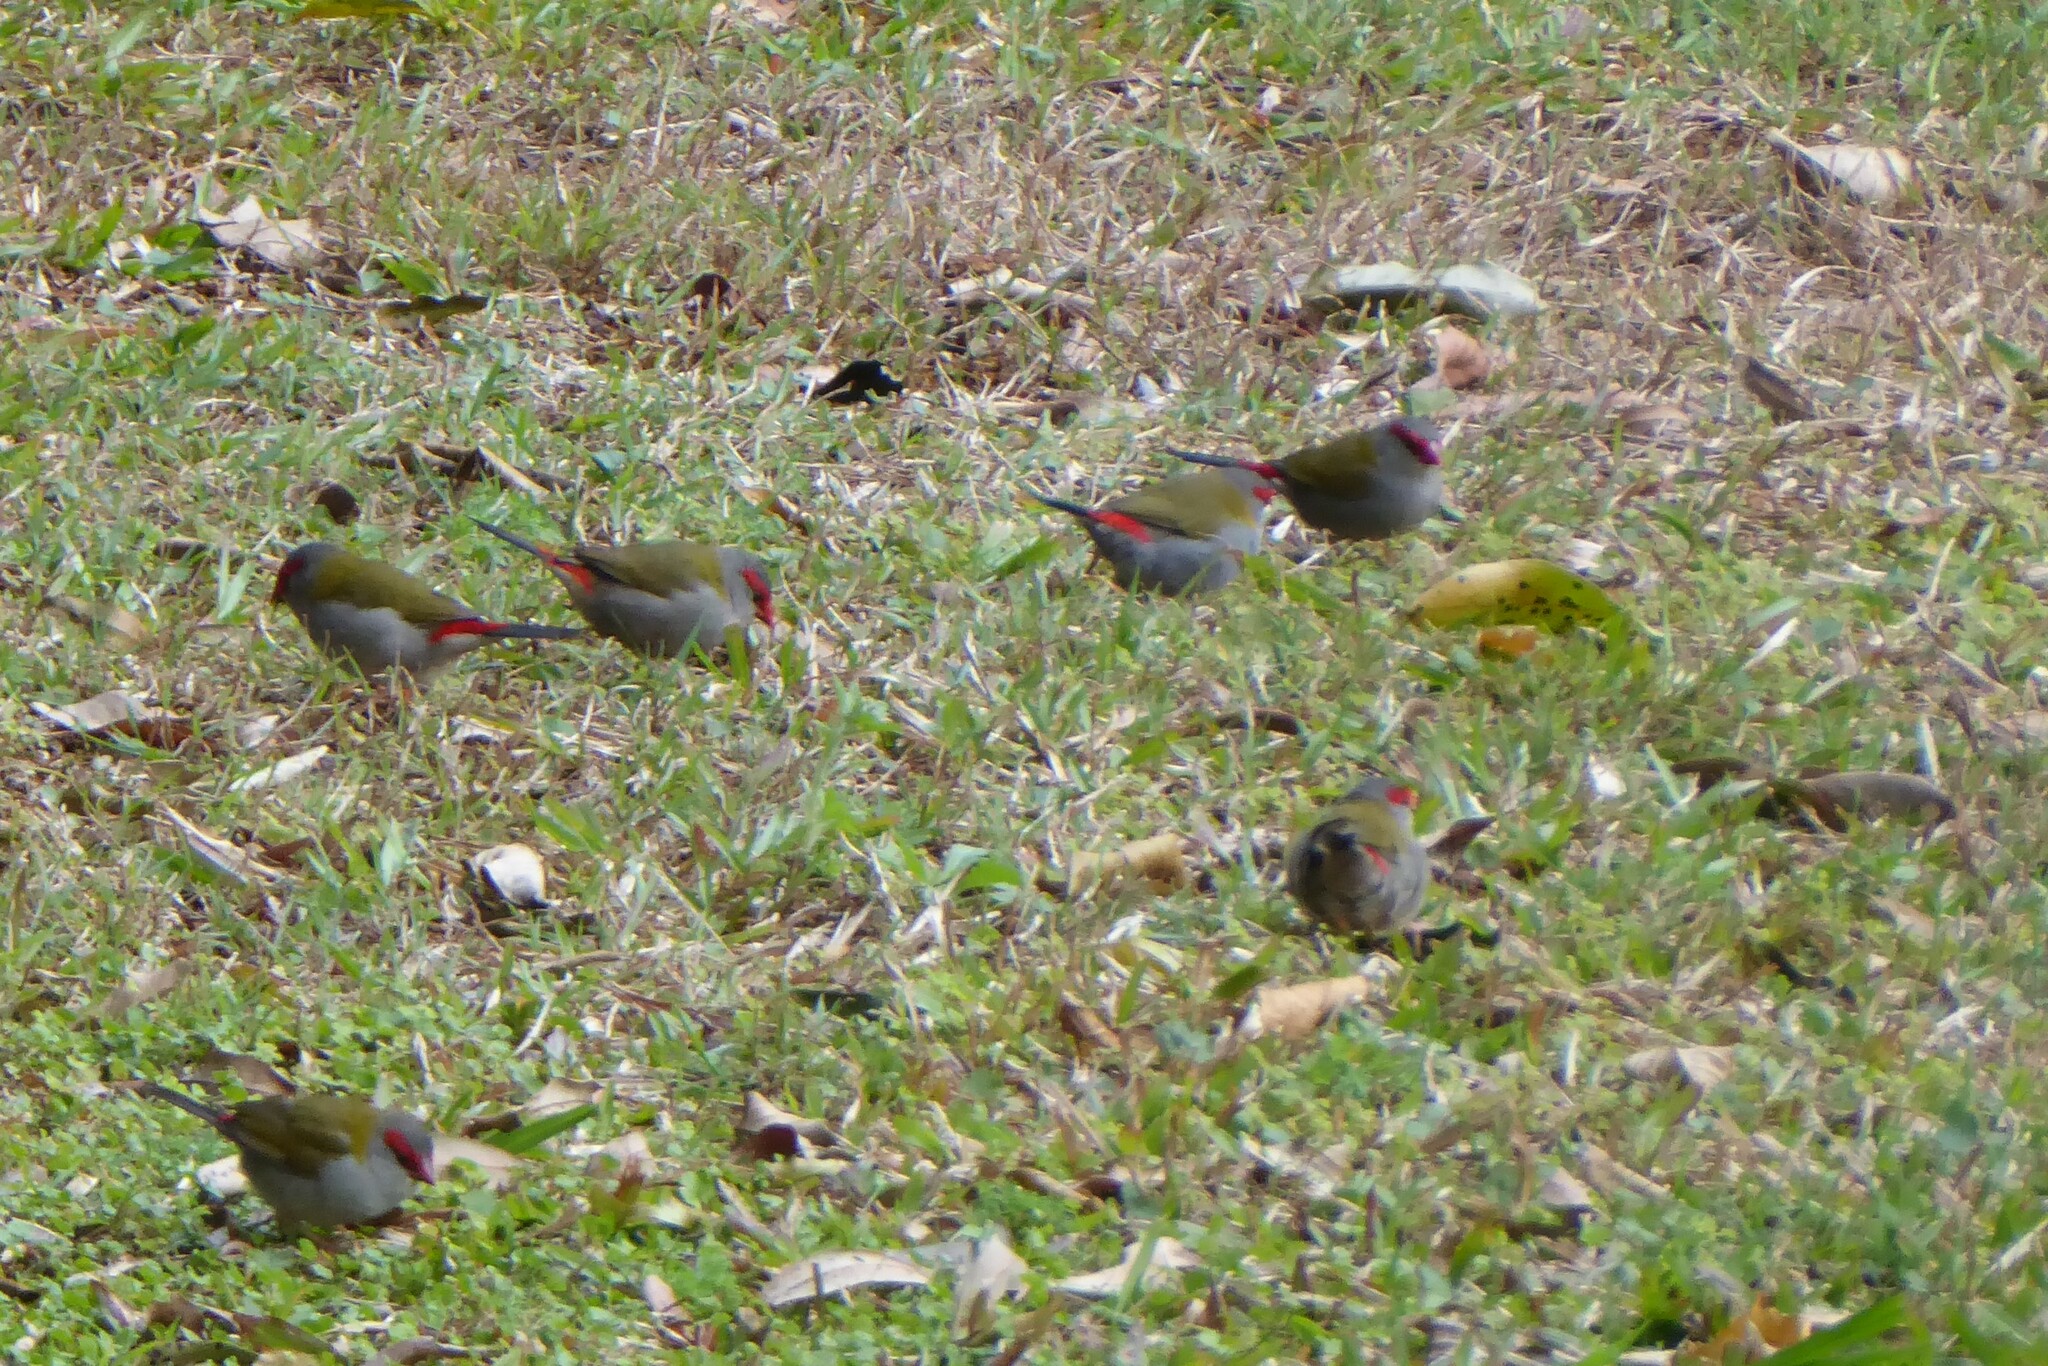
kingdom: Animalia
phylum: Chordata
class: Aves
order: Passeriformes
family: Estrildidae
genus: Neochmia
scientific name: Neochmia temporalis
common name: Red-browed finch
